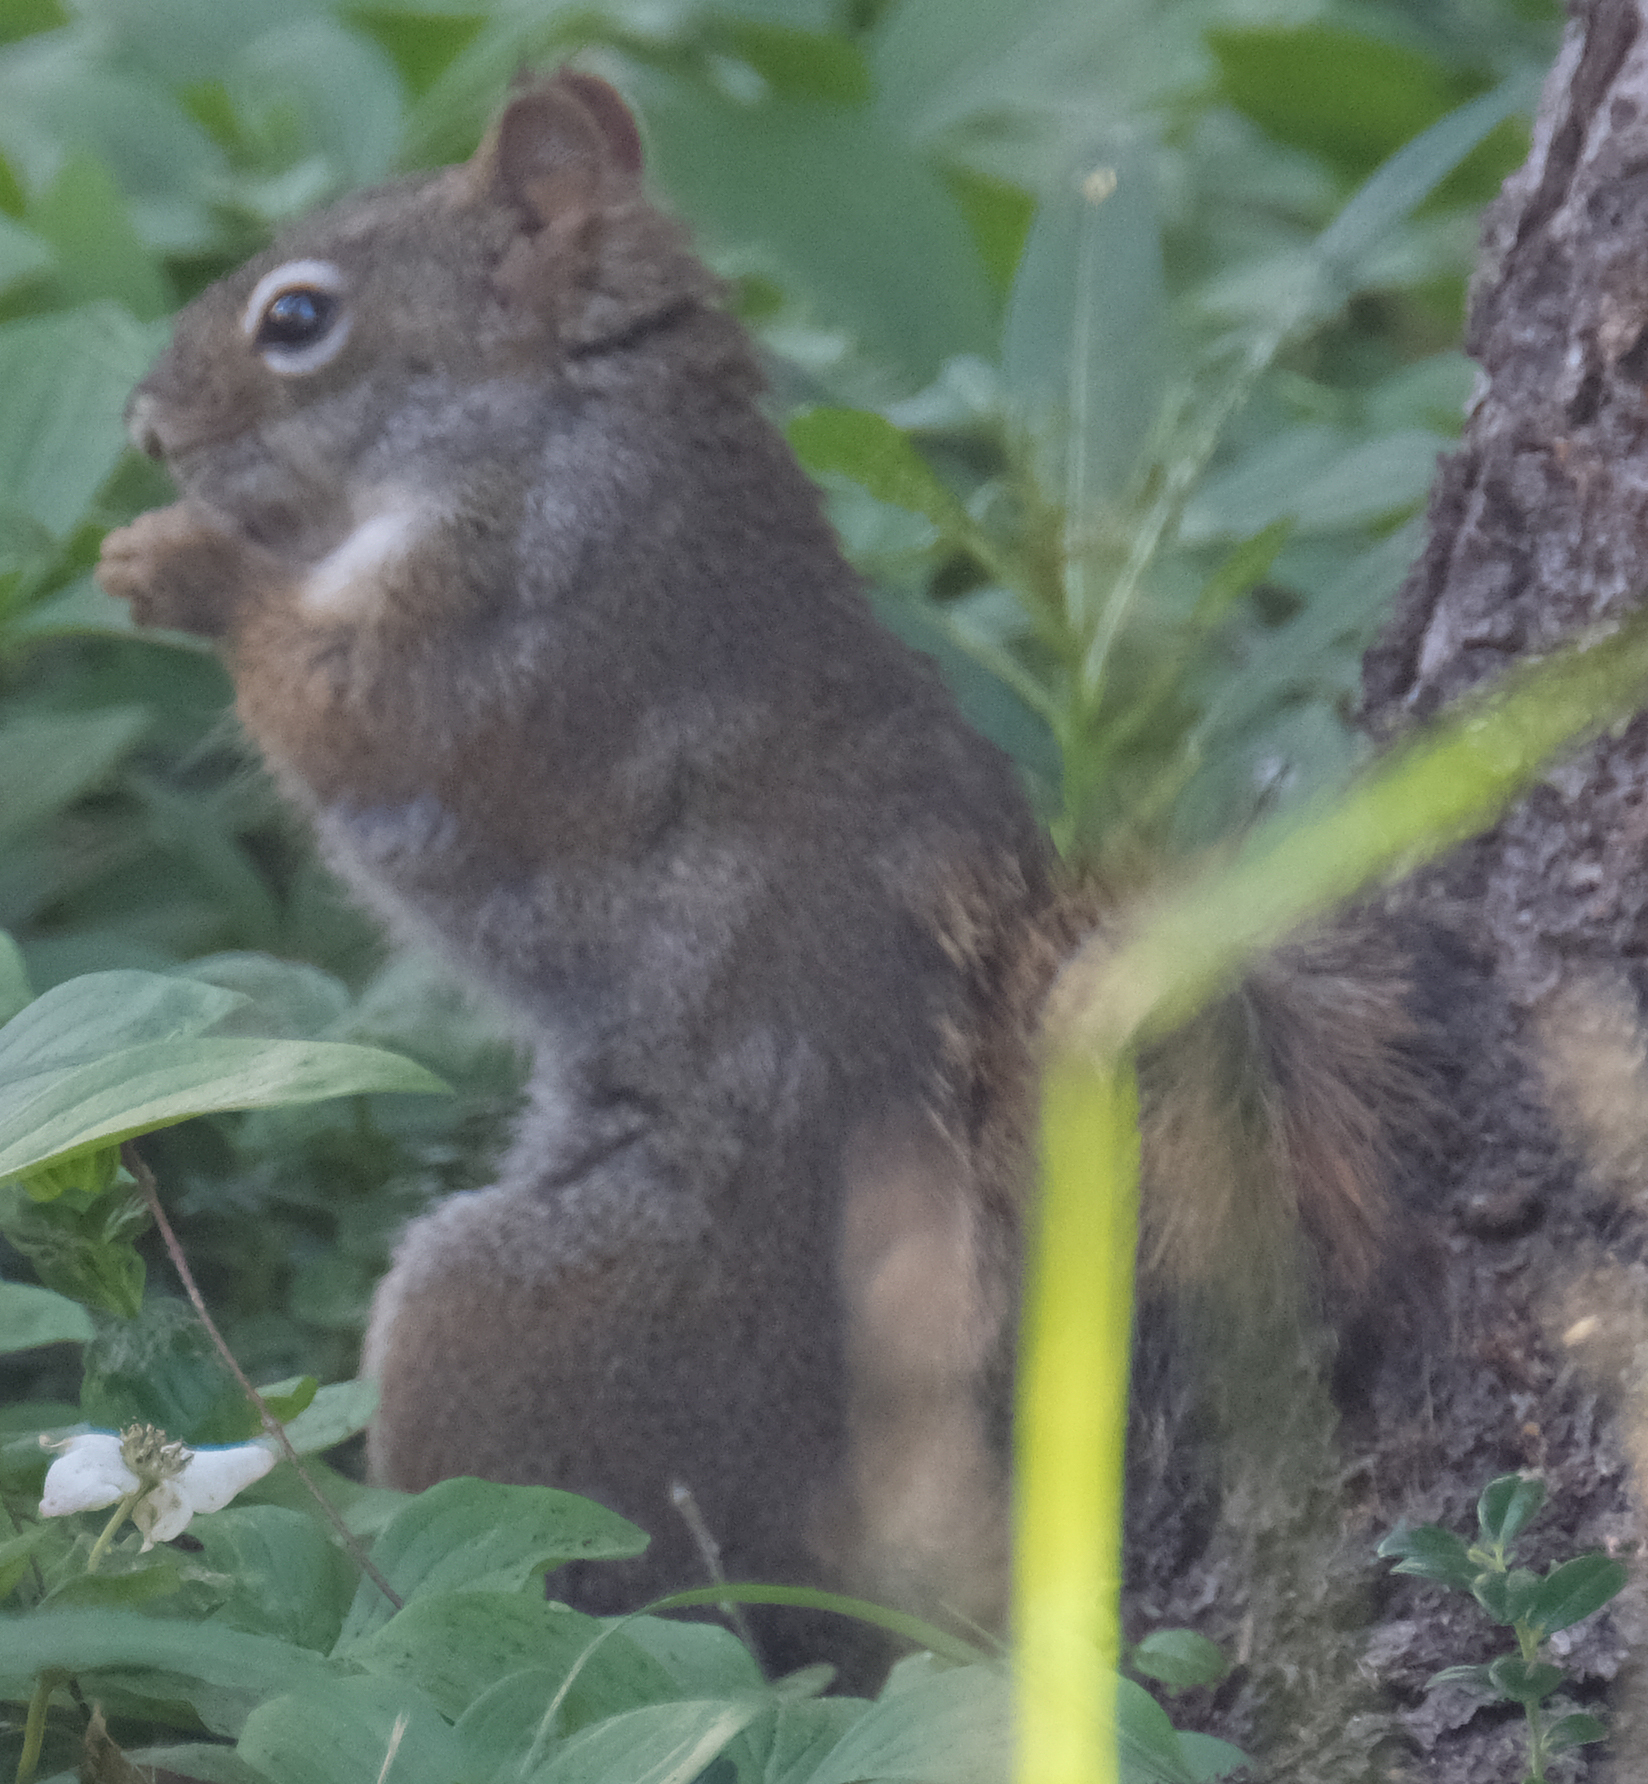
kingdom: Animalia
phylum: Chordata
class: Mammalia
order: Rodentia
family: Sciuridae
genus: Tamiasciurus
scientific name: Tamiasciurus hudsonicus
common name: Red squirrel
